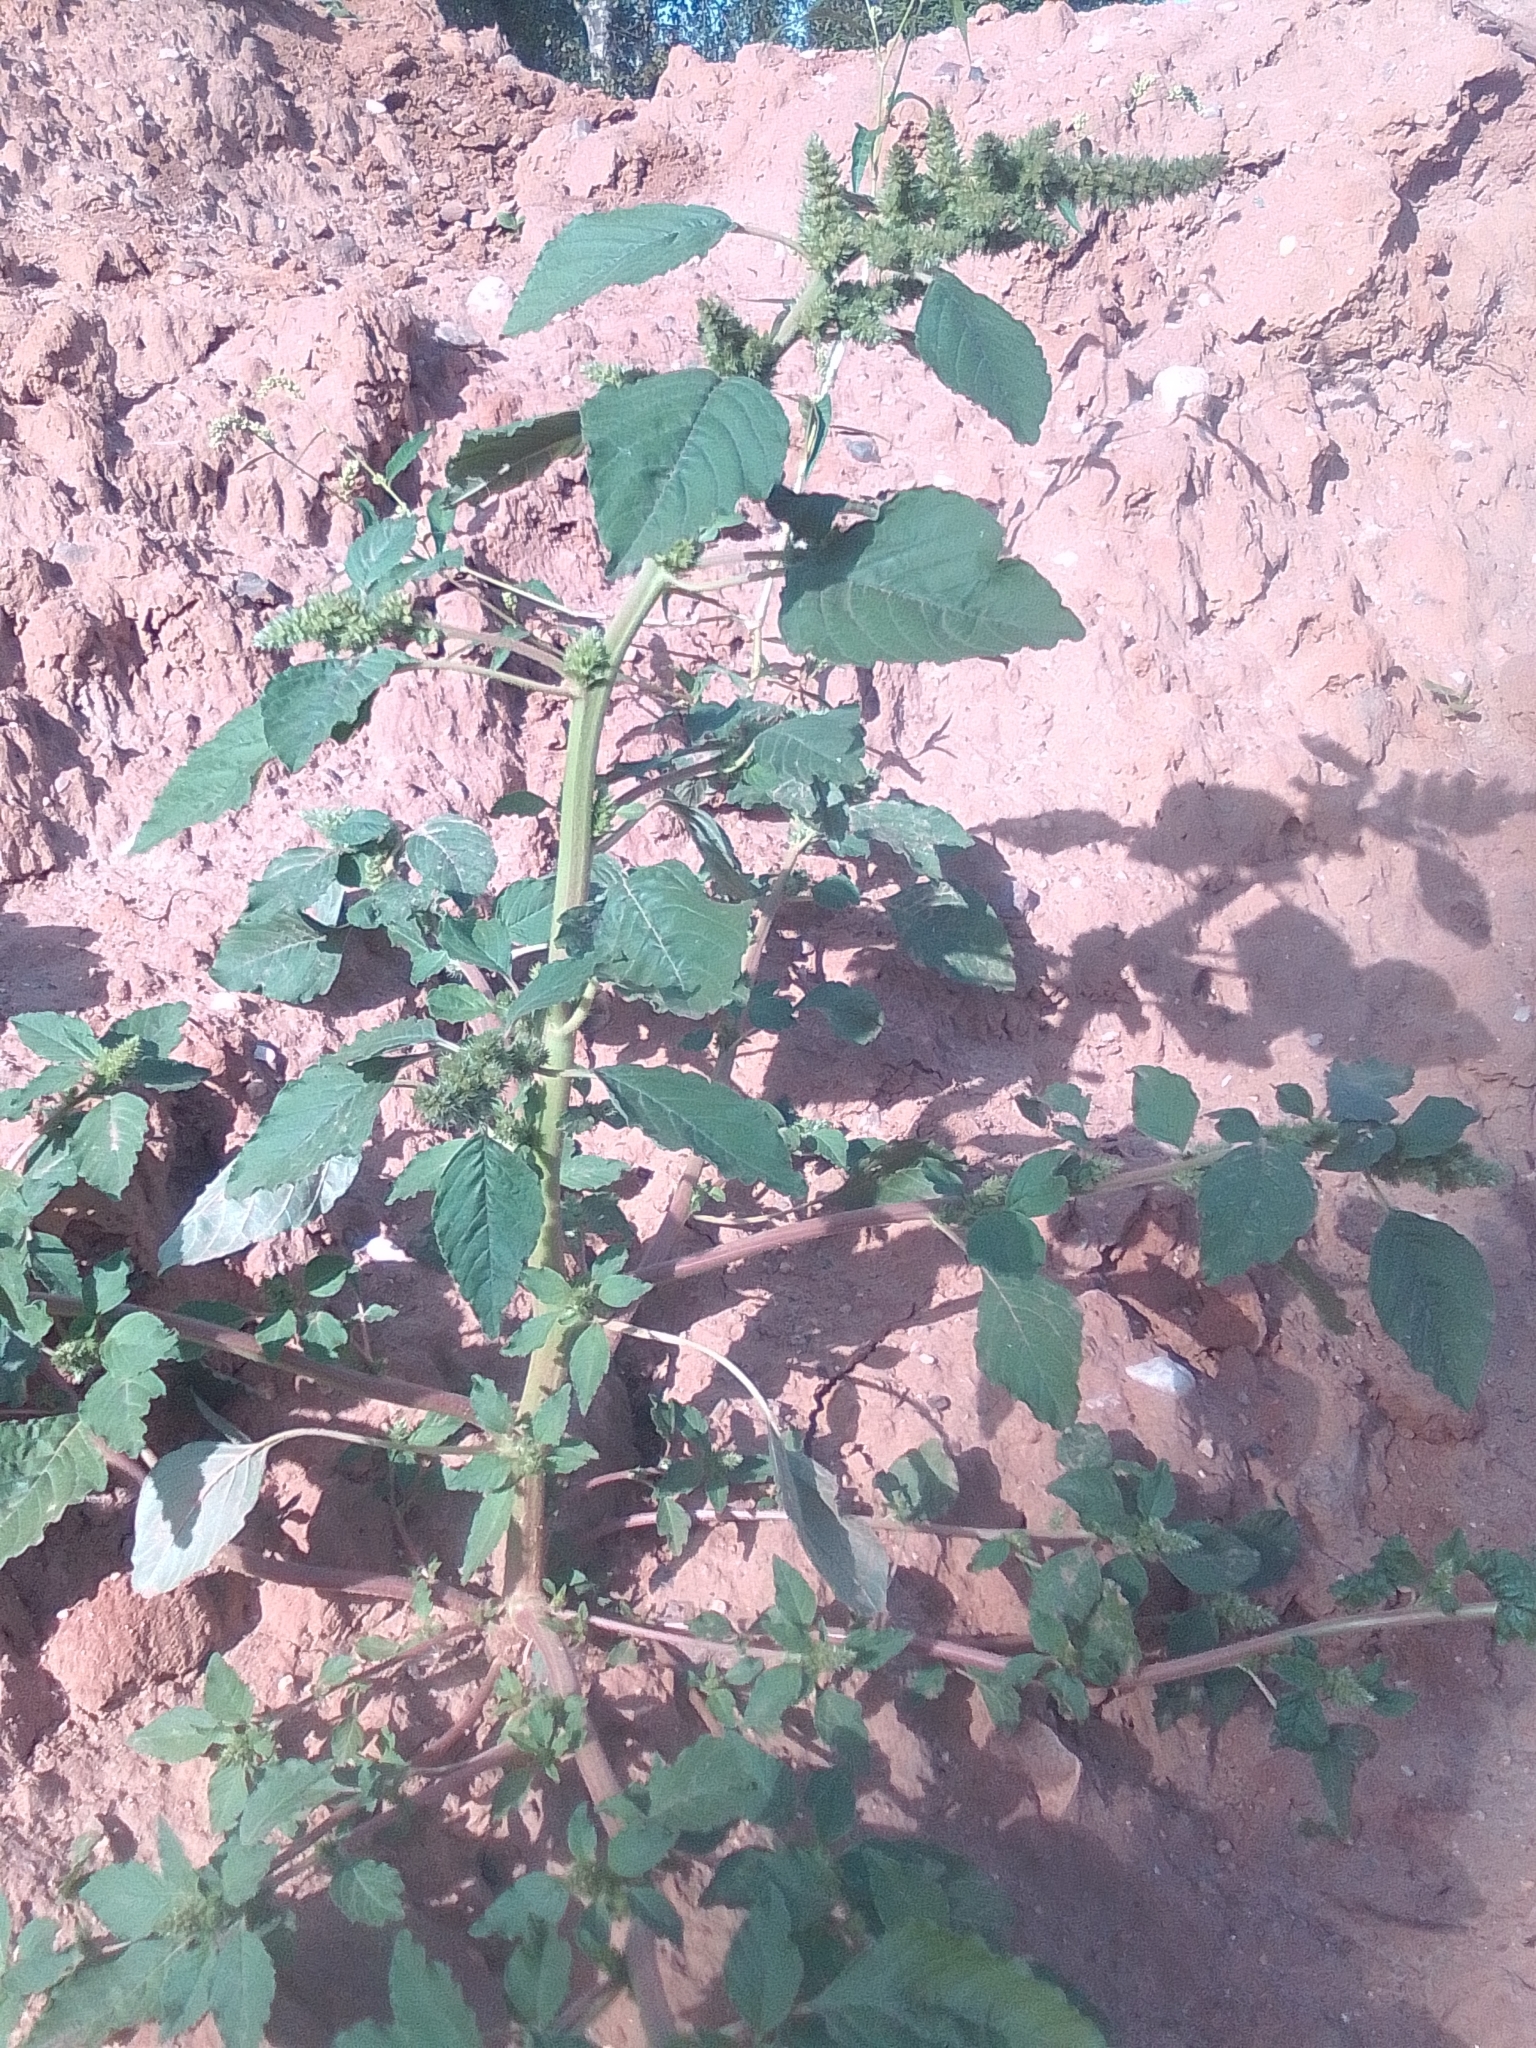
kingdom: Plantae
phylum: Tracheophyta
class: Magnoliopsida
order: Caryophyllales
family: Amaranthaceae
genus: Amaranthus
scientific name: Amaranthus retroflexus
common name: Redroot amaranth
